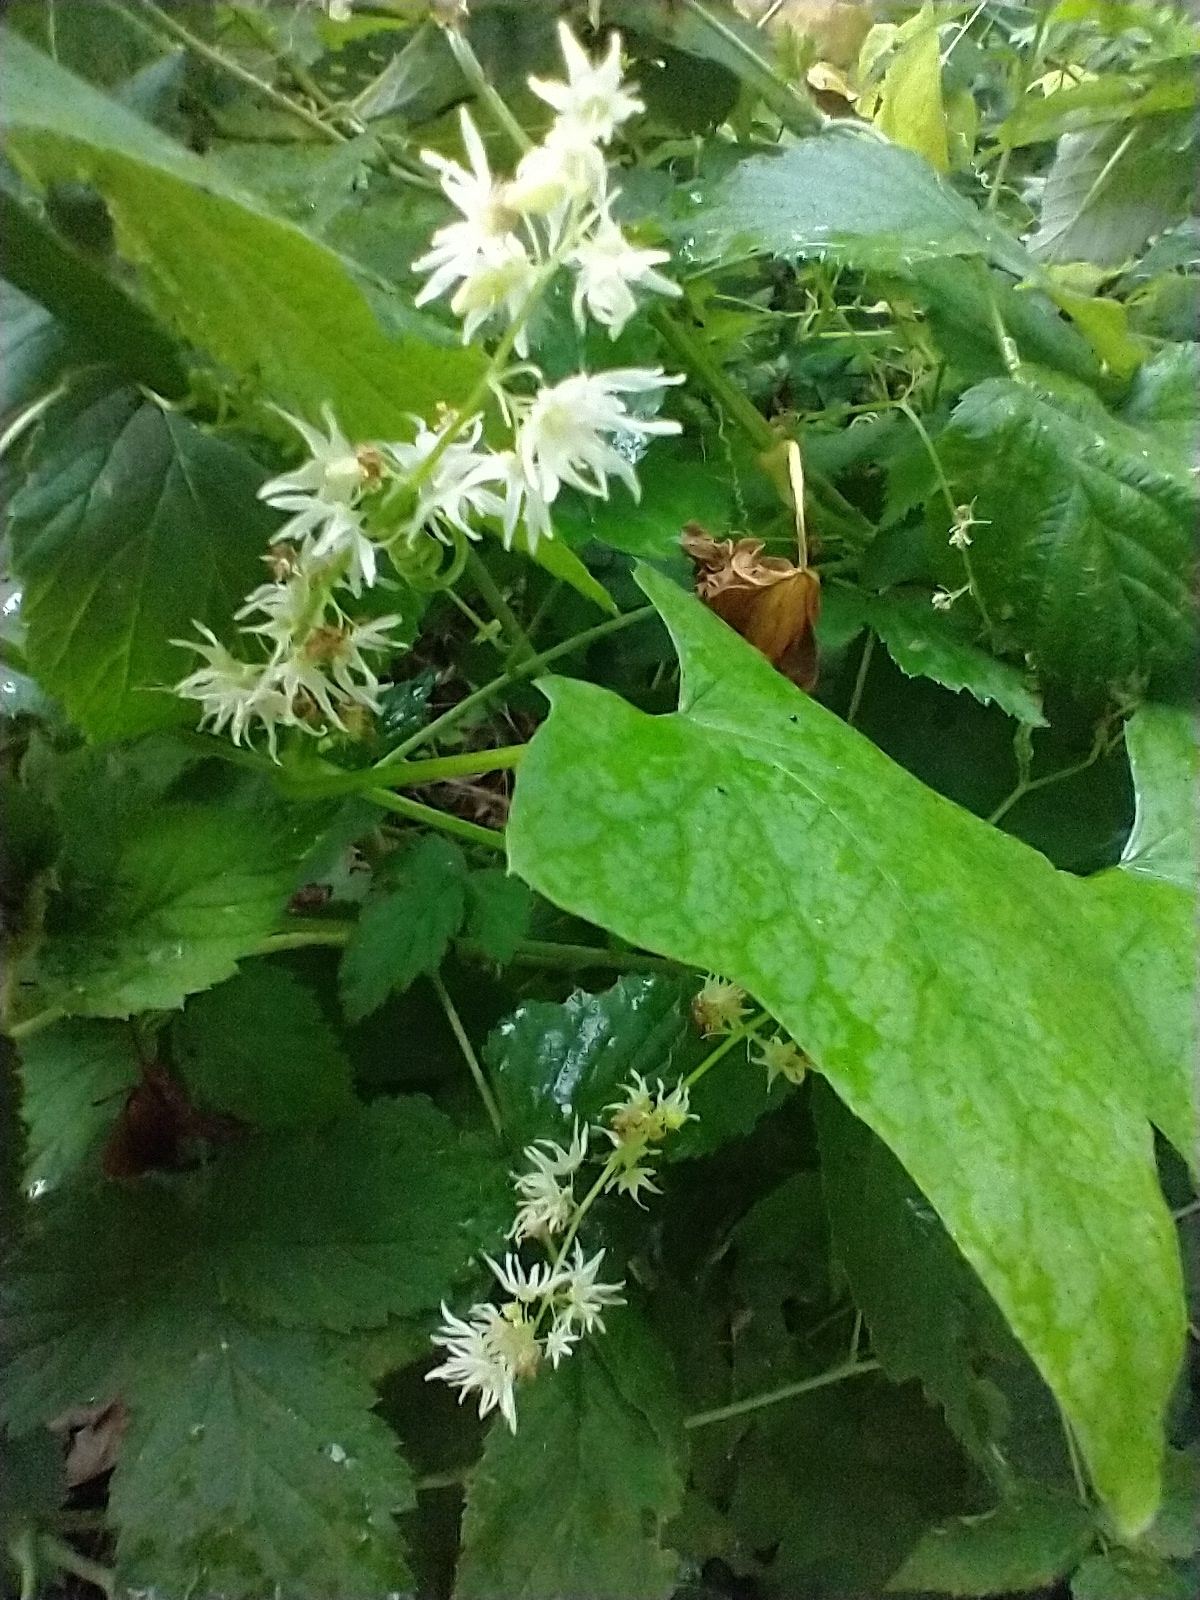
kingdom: Plantae
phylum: Tracheophyta
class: Magnoliopsida
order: Cucurbitales
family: Cucurbitaceae
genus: Echinocystis
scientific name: Echinocystis lobata
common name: Wild cucumber
